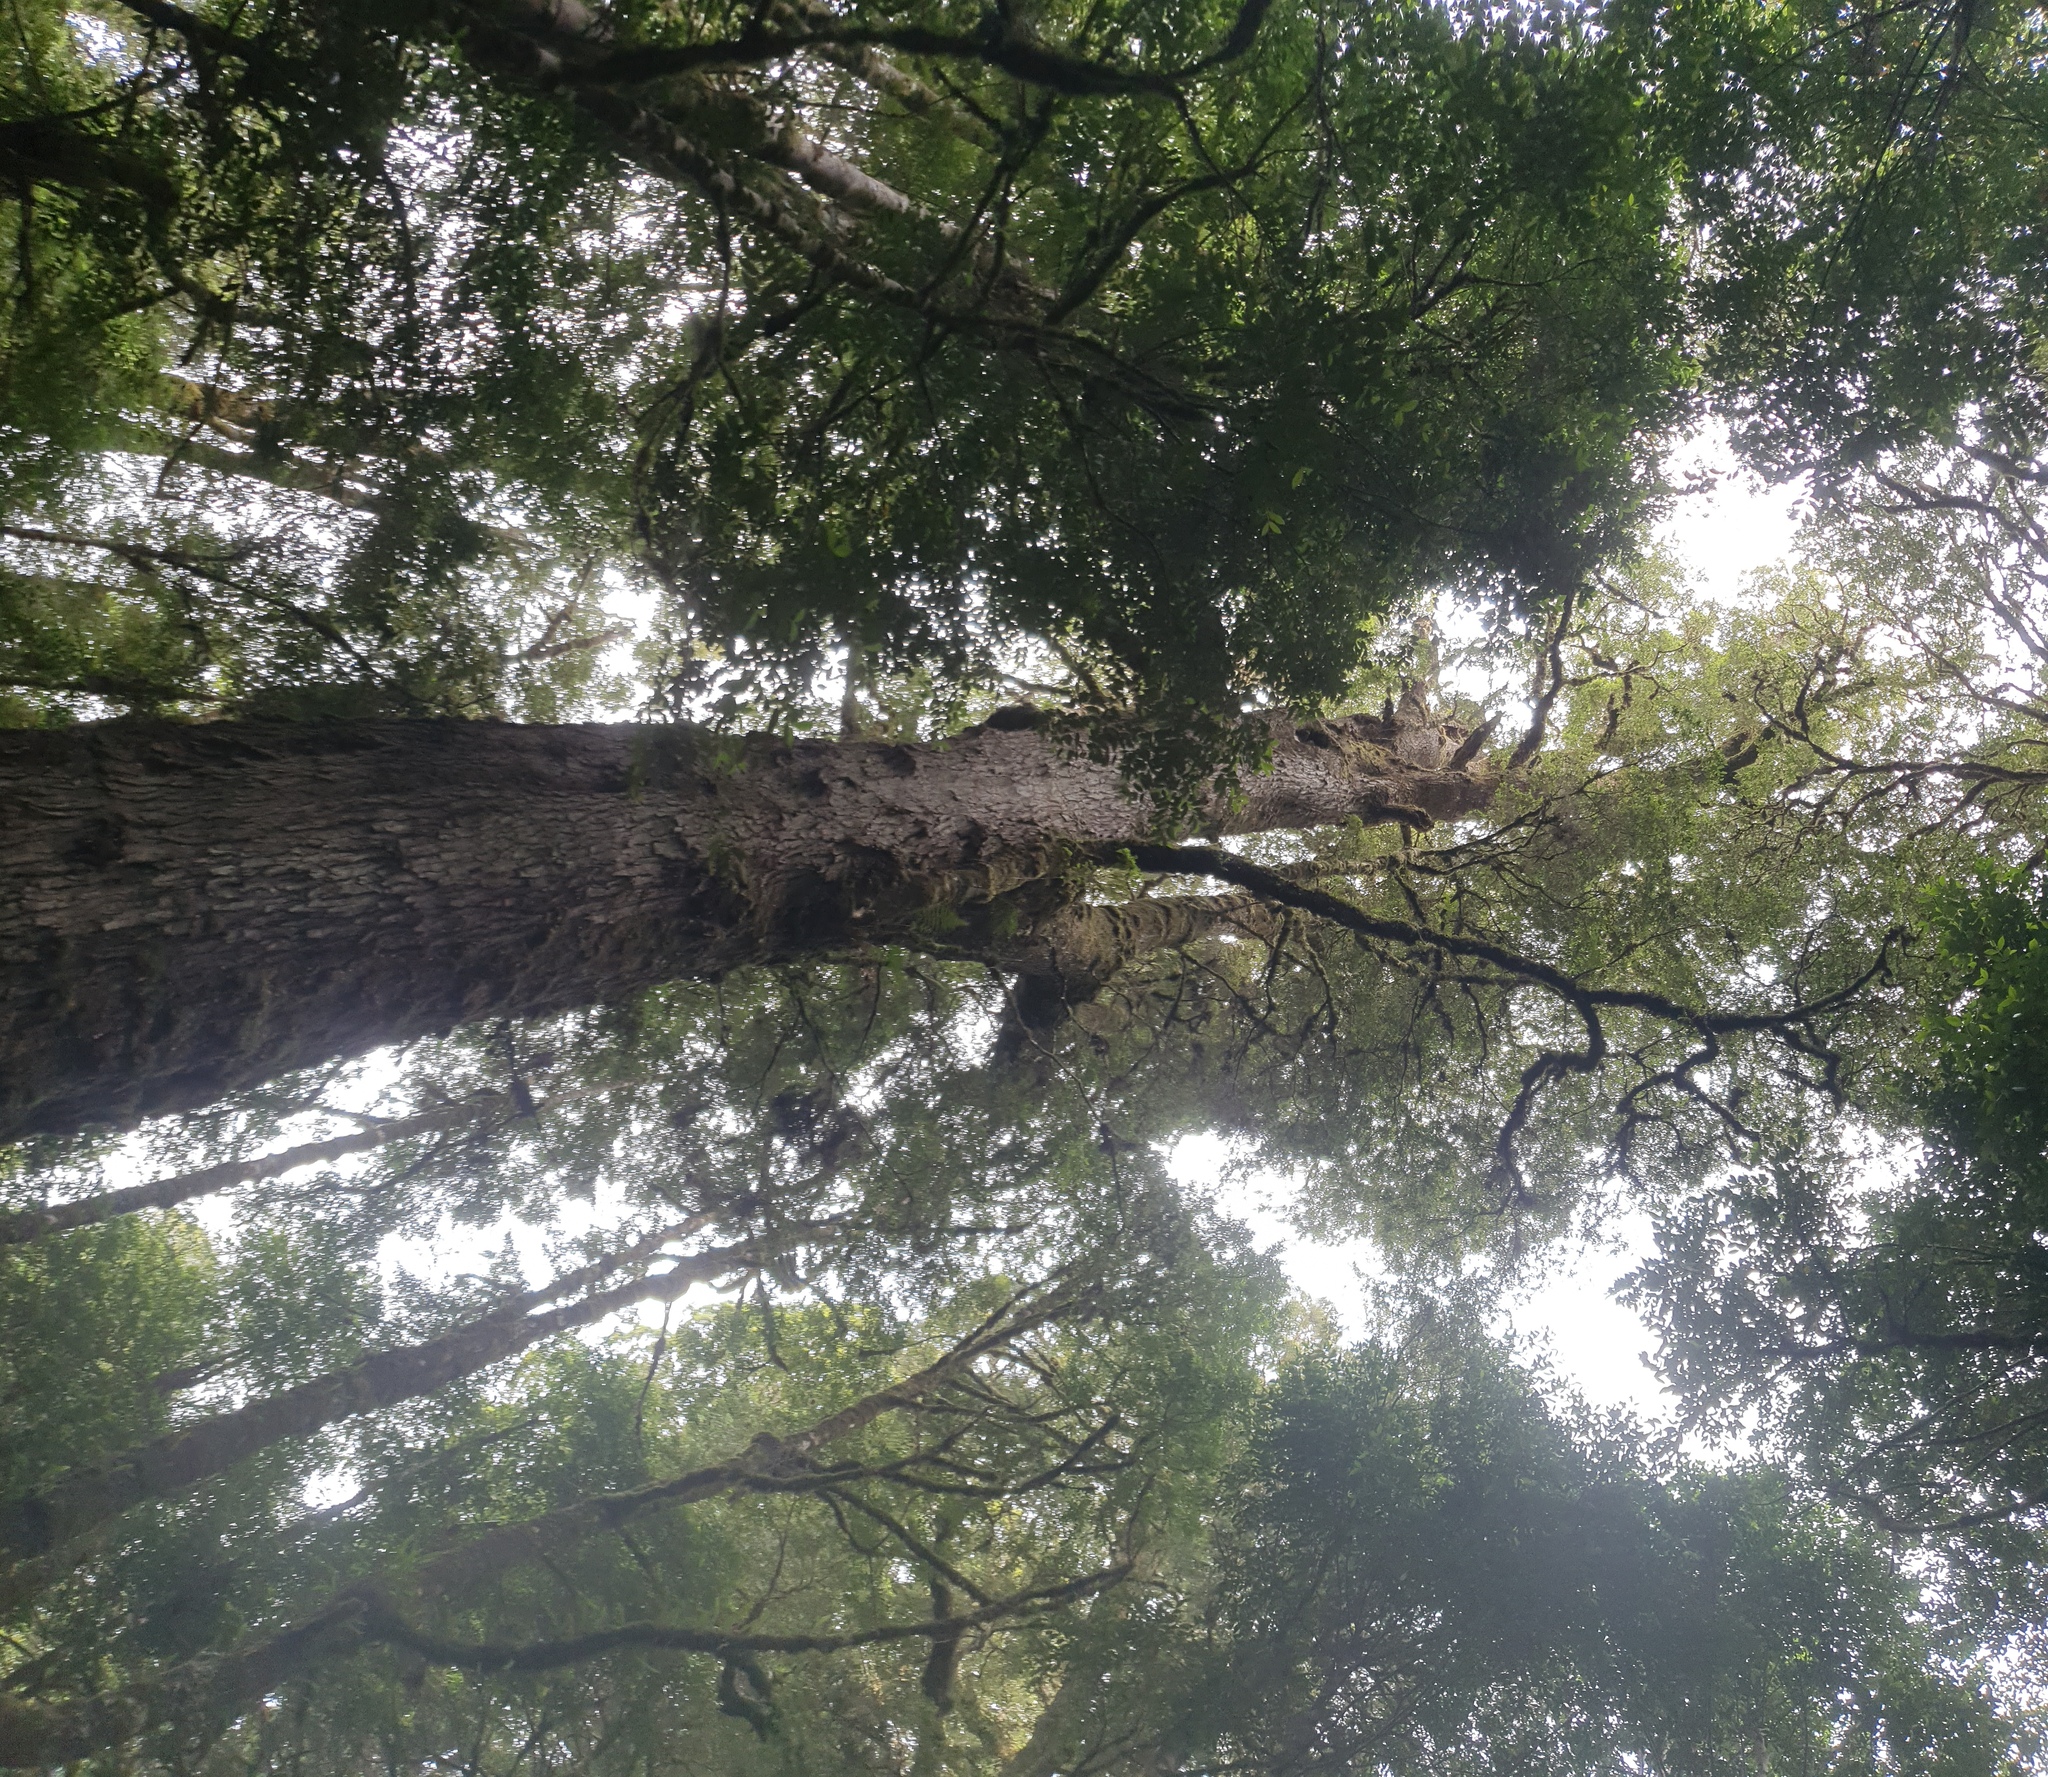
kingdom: Plantae
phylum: Tracheophyta
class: Magnoliopsida
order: Fagales
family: Nothofagaceae
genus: Nothofagus
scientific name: Nothofagus cunninghamii
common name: Myrtle beech
